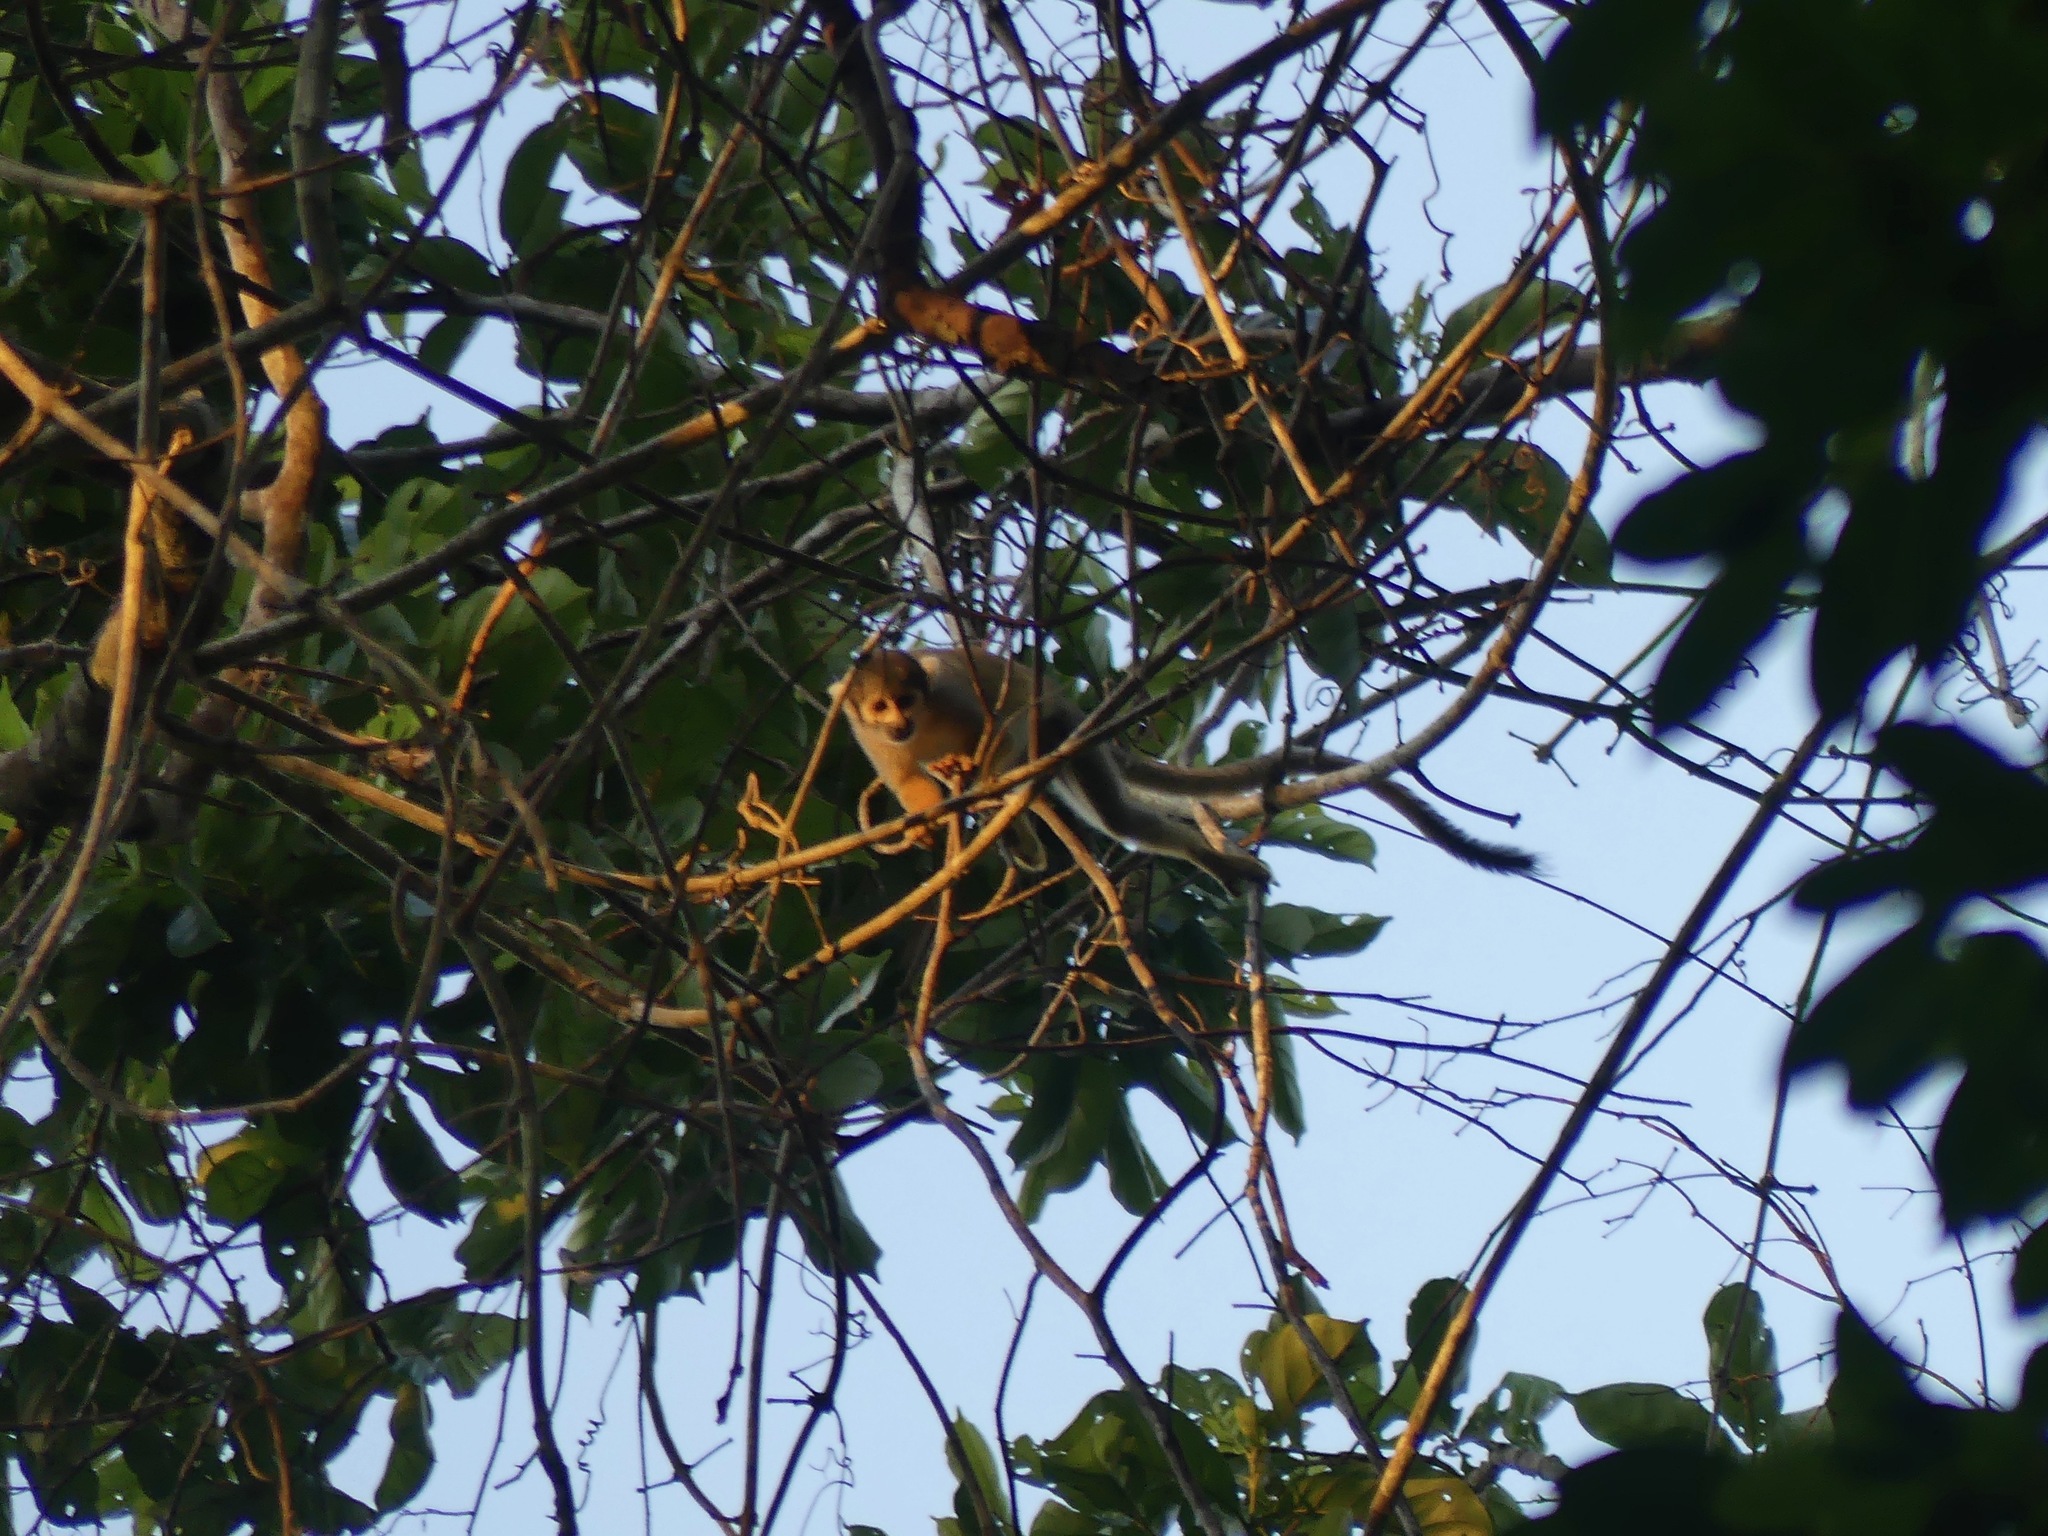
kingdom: Animalia
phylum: Chordata
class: Mammalia
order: Primates
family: Cebidae
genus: Saimiri
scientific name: Saimiri boliviensis
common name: Black-capped squirrel monkey
